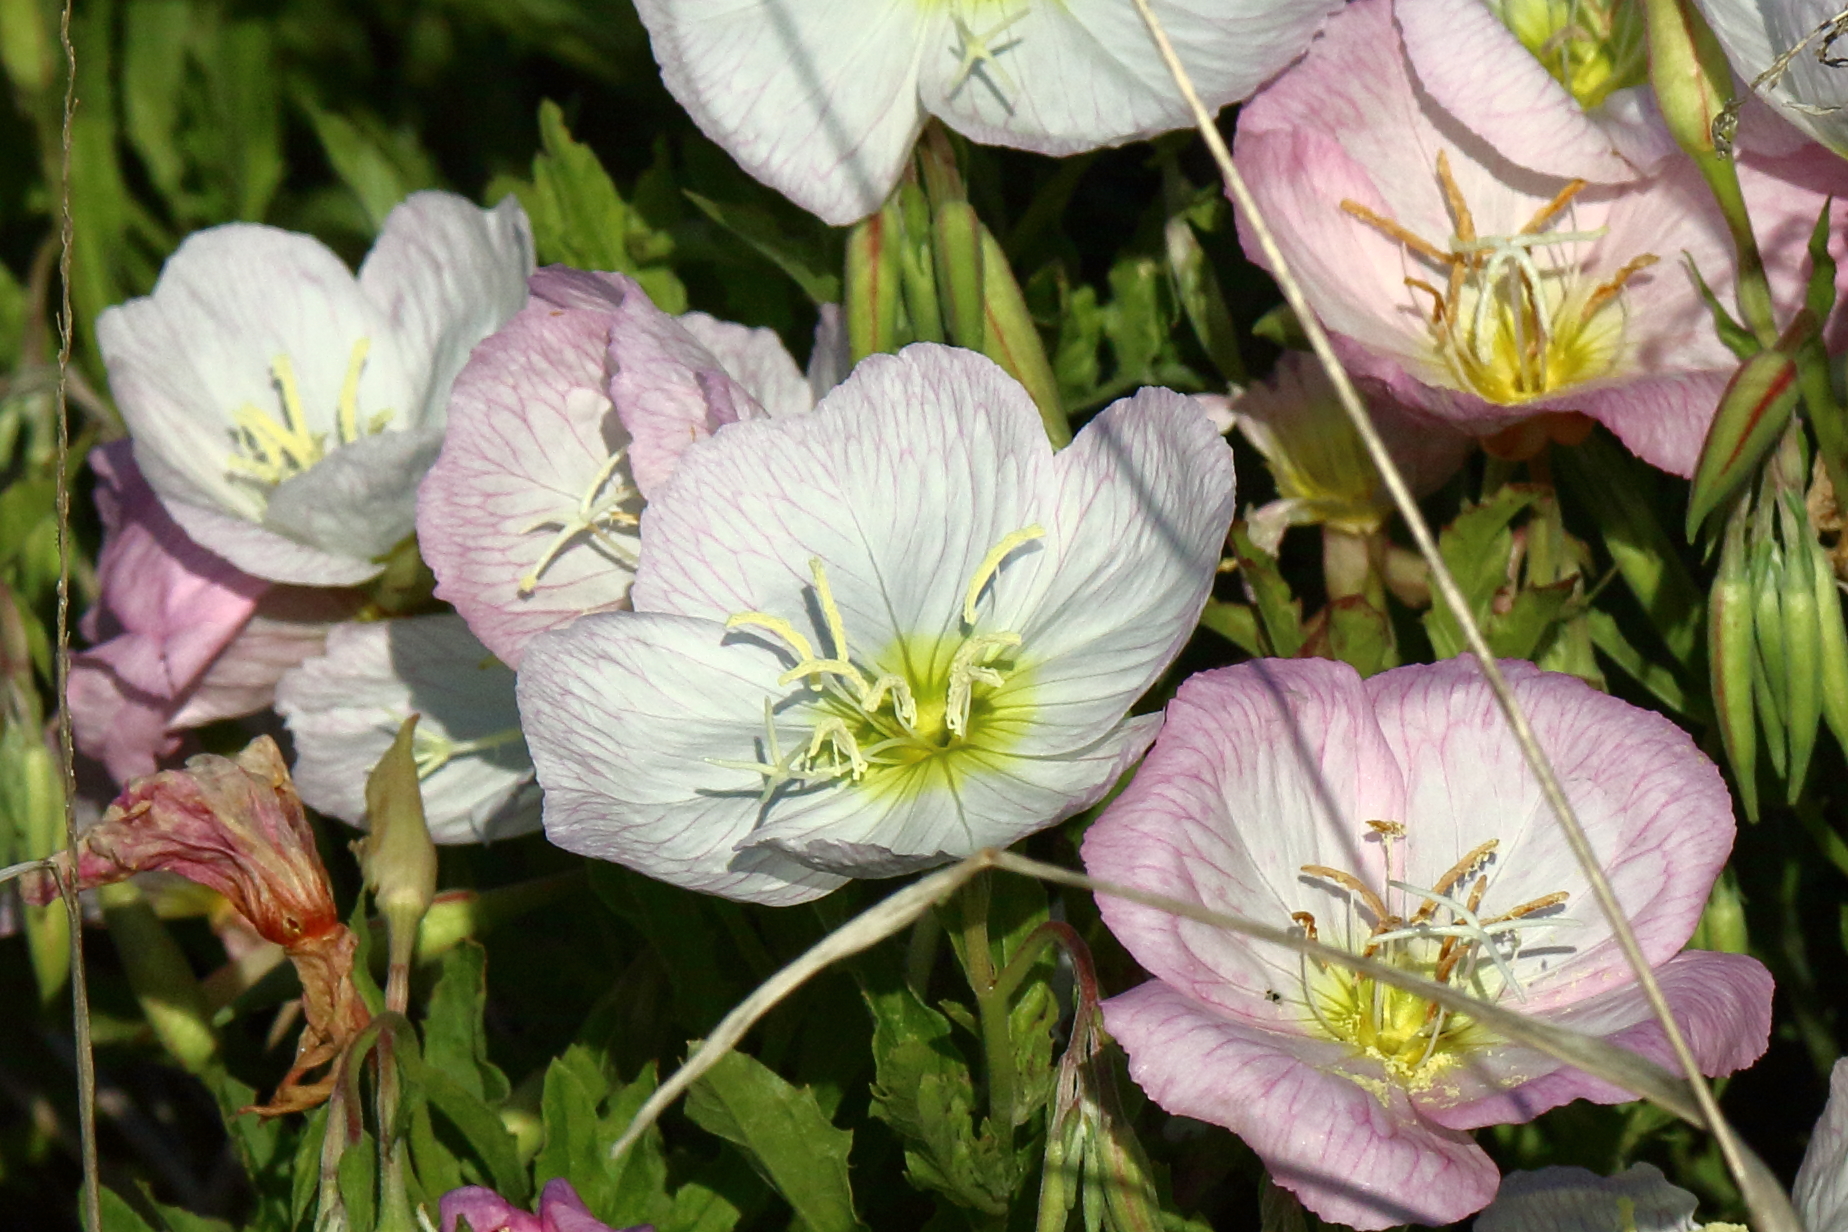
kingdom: Plantae
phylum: Tracheophyta
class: Magnoliopsida
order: Myrtales
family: Onagraceae
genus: Oenothera
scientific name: Oenothera speciosa
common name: White evening-primrose
